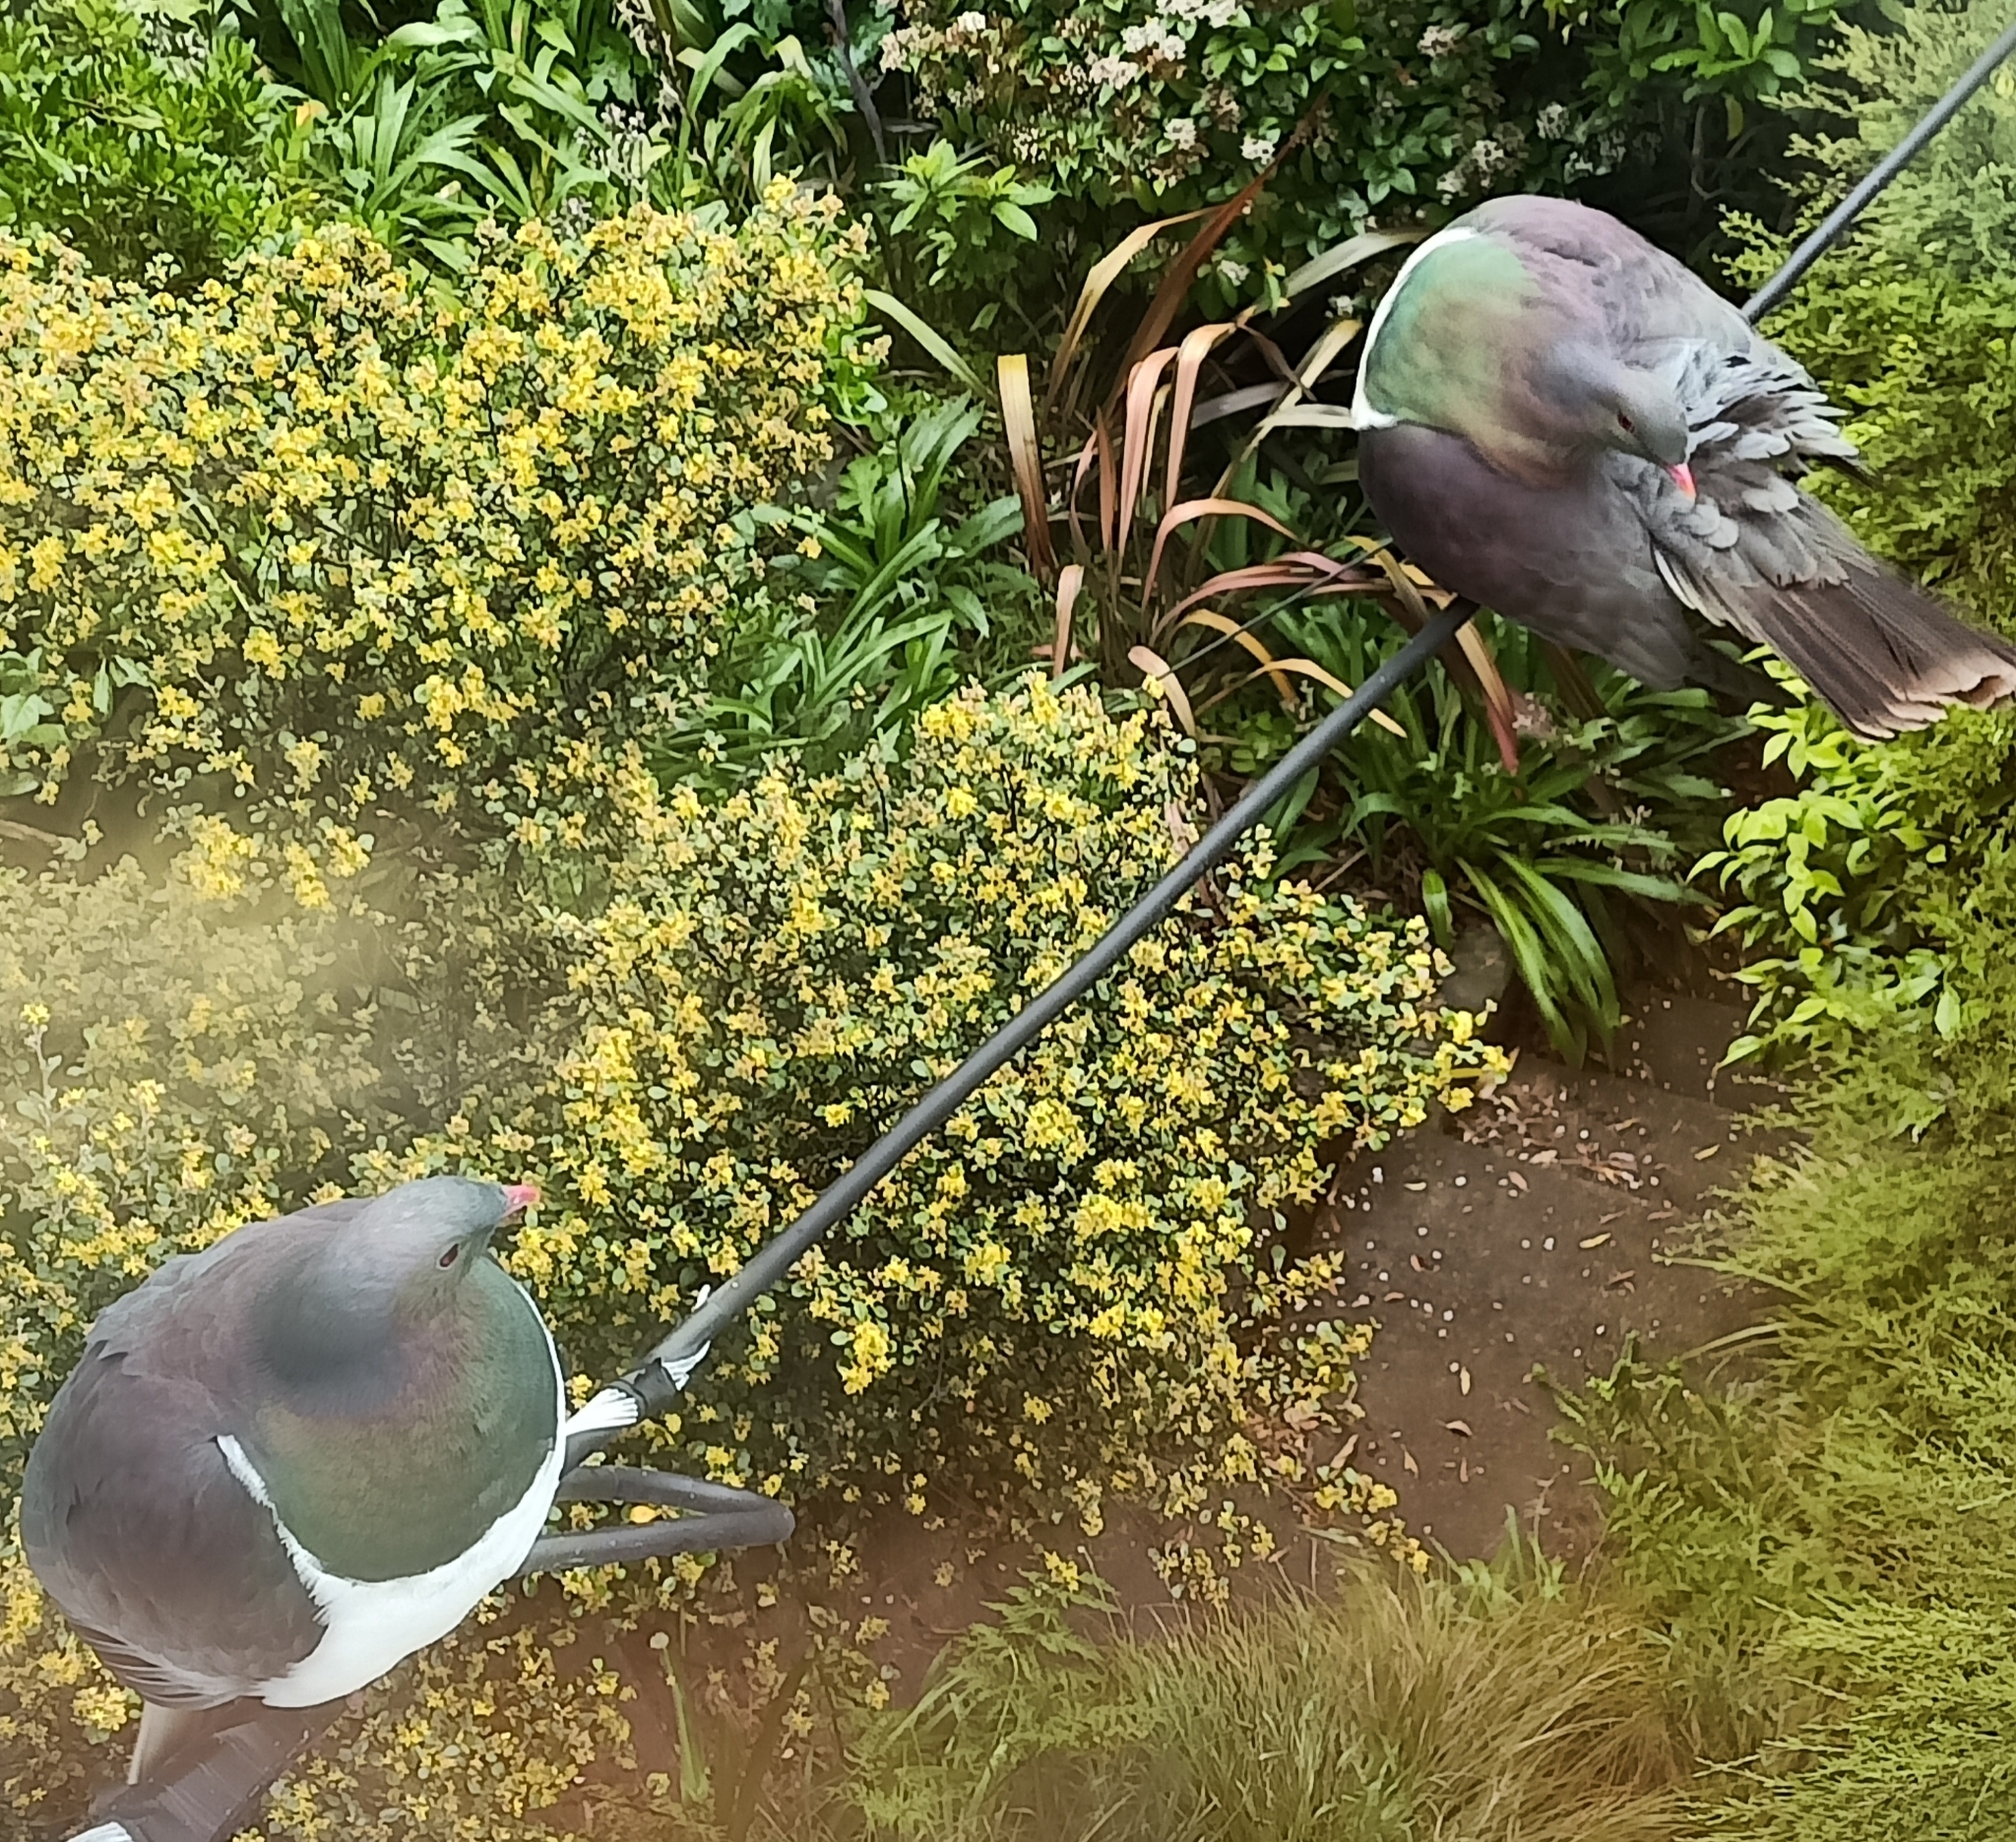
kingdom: Animalia
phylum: Chordata
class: Aves
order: Columbiformes
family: Columbidae
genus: Hemiphaga
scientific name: Hemiphaga novaeseelandiae
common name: New zealand pigeon
